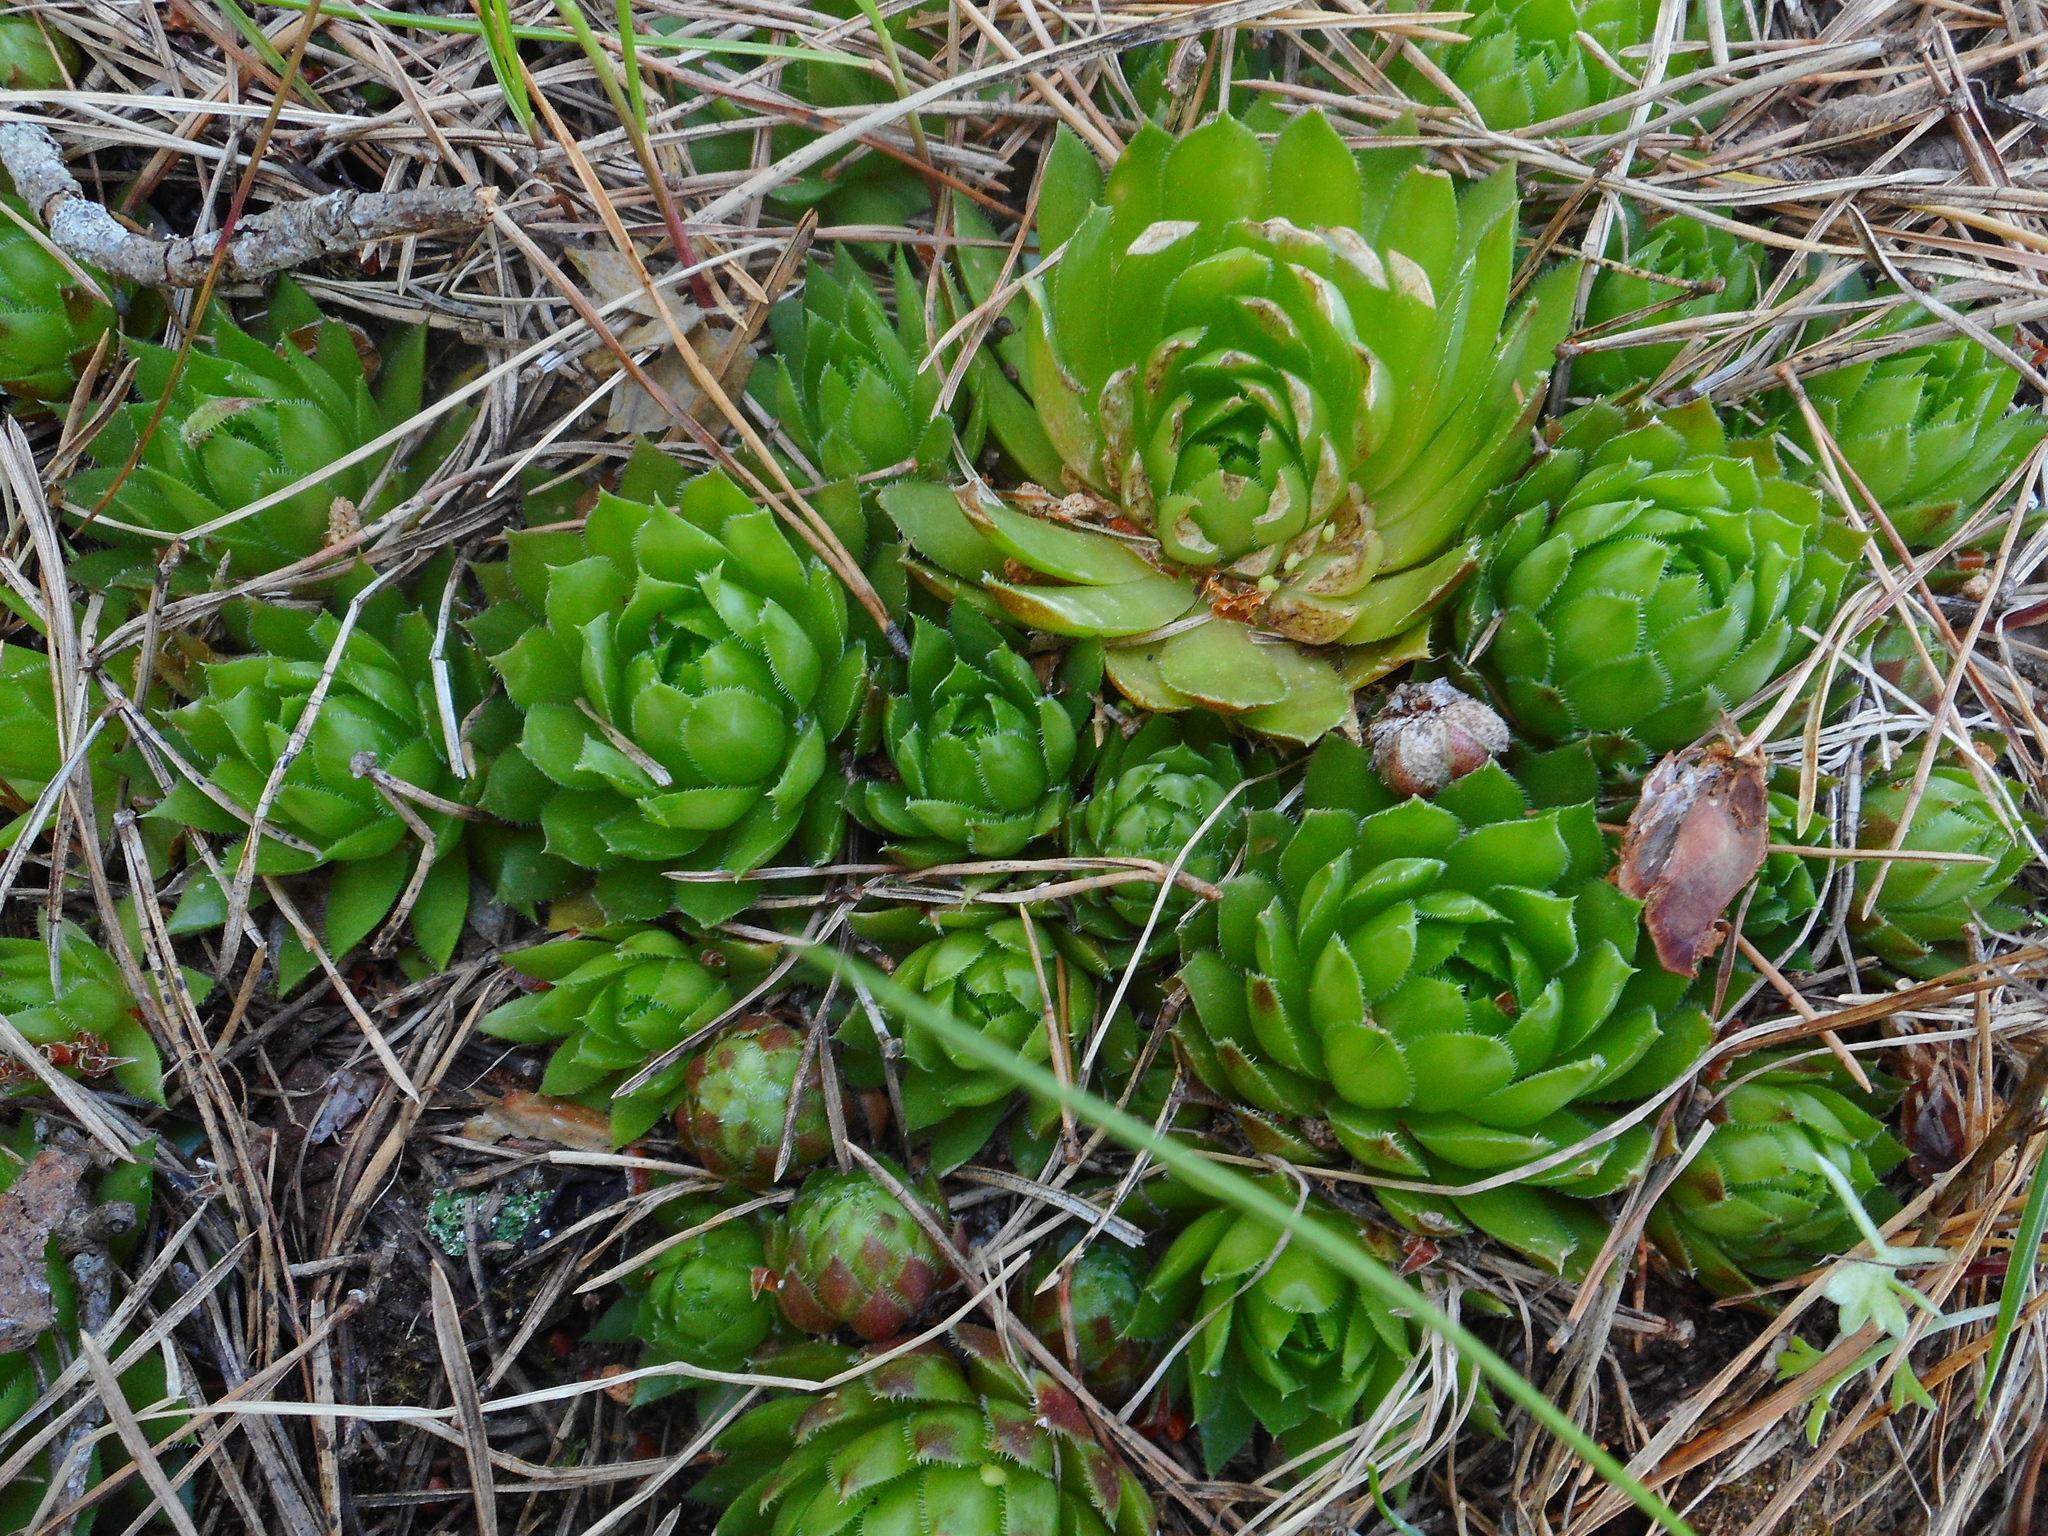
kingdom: Plantae
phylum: Tracheophyta
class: Magnoliopsida
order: Saxifragales
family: Crassulaceae
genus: Sempervivum
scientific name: Sempervivum globiferum
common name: Rolling hen-and-chicks
